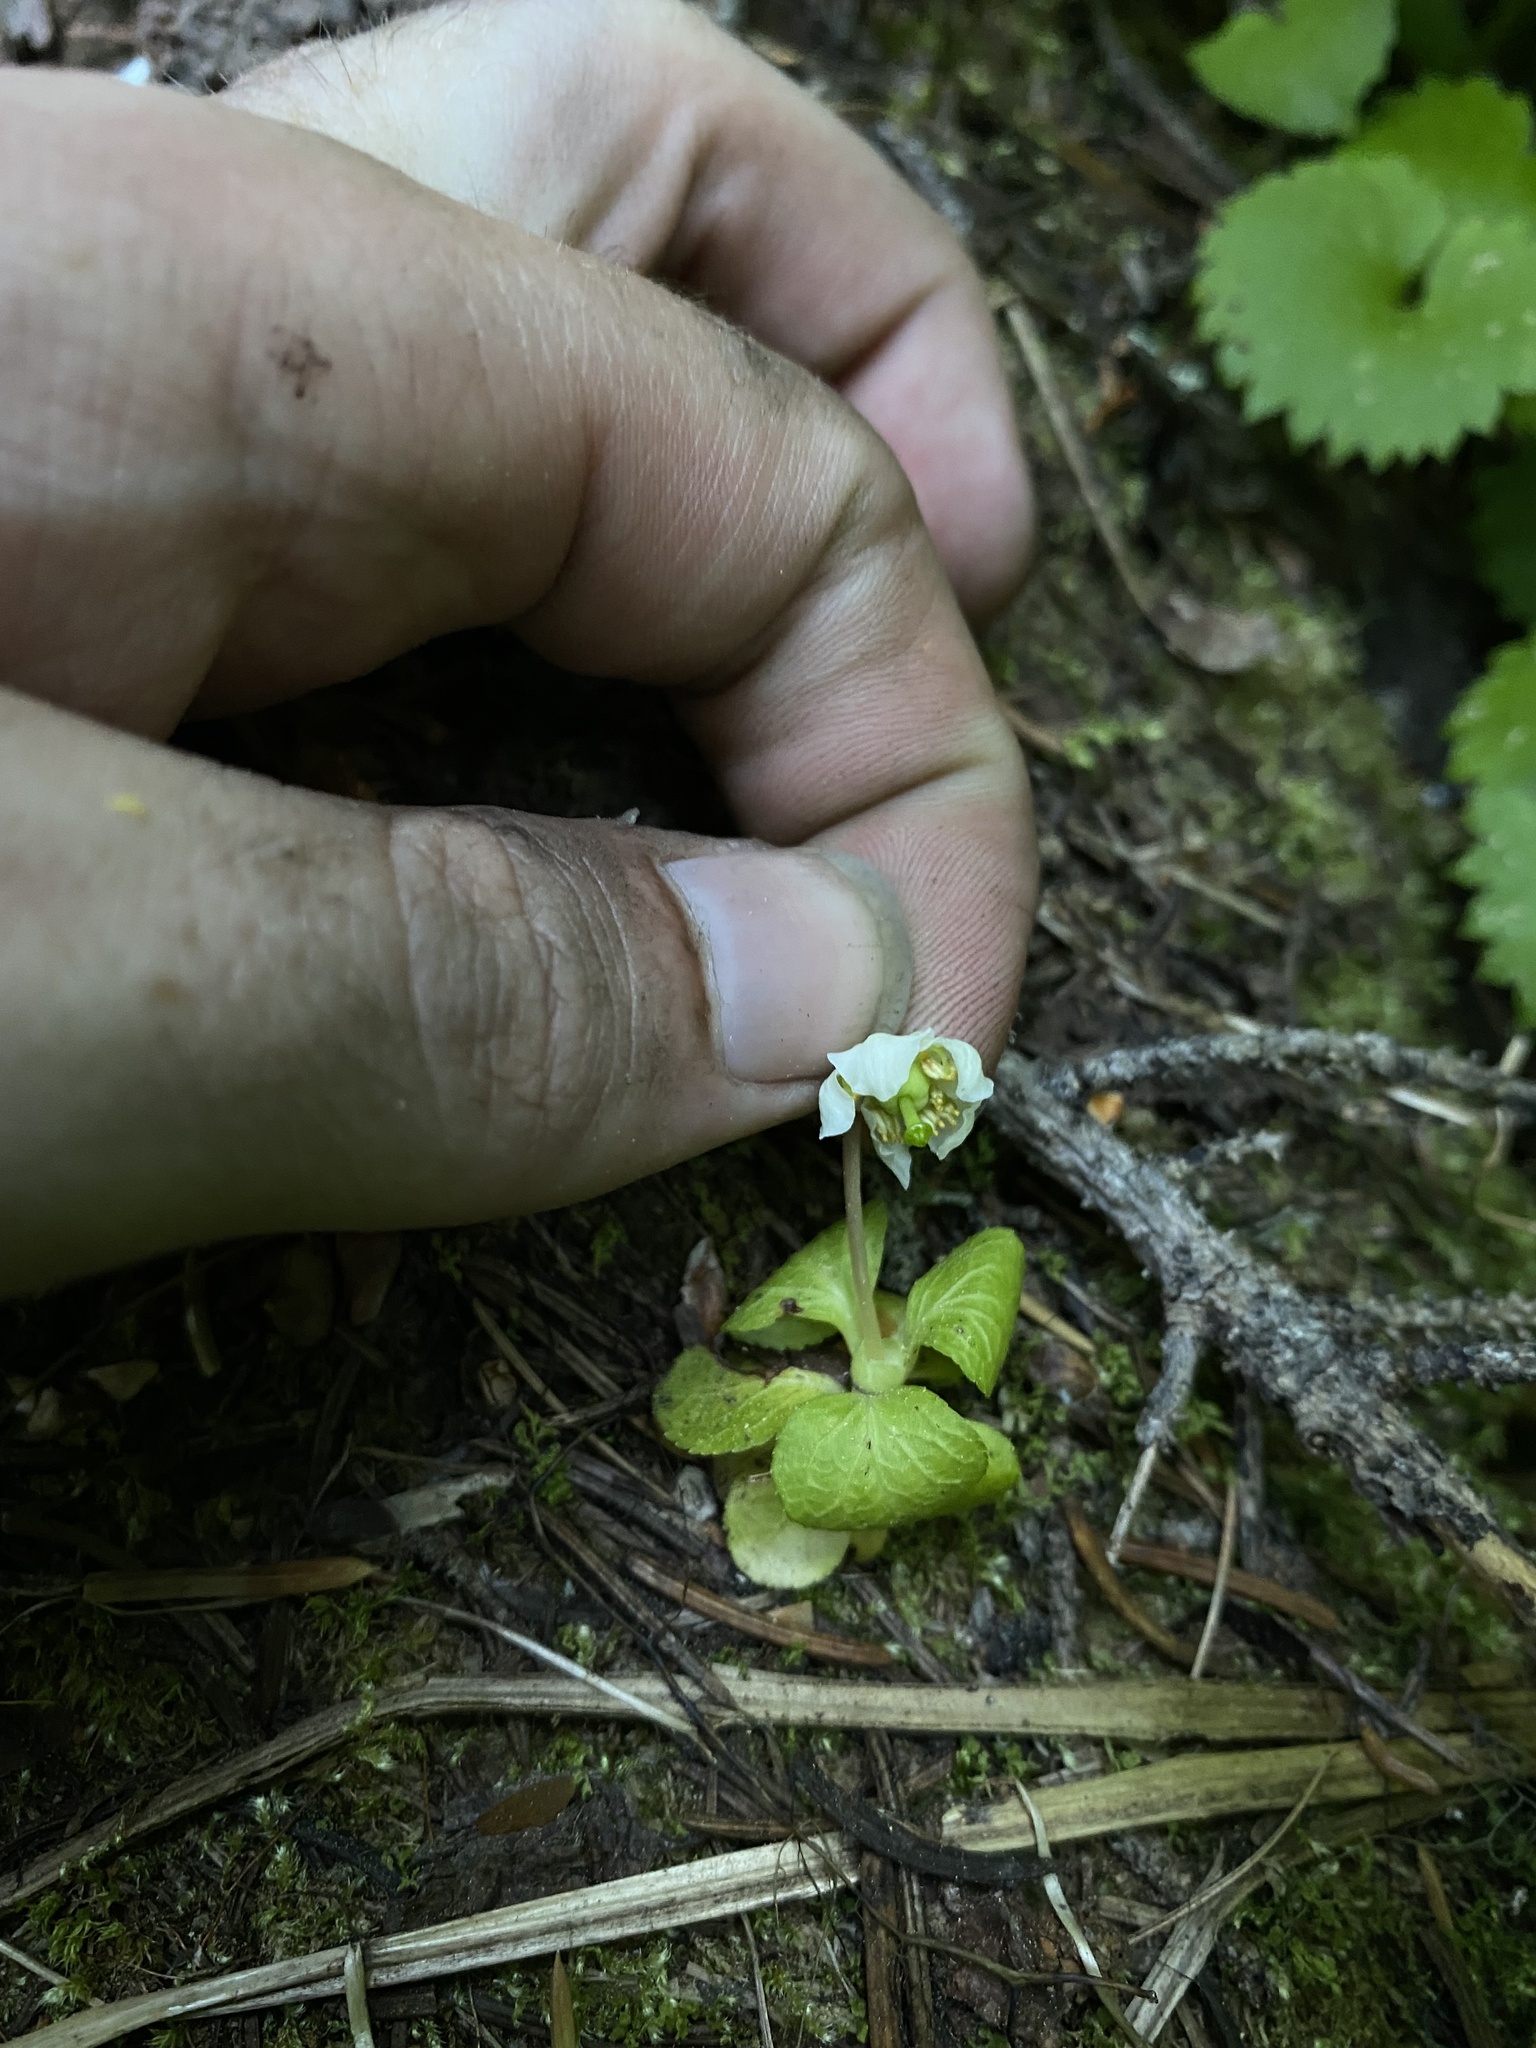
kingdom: Plantae
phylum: Tracheophyta
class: Magnoliopsida
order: Ericales
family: Ericaceae
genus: Moneses
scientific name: Moneses uniflora
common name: One-flowered wintergreen
